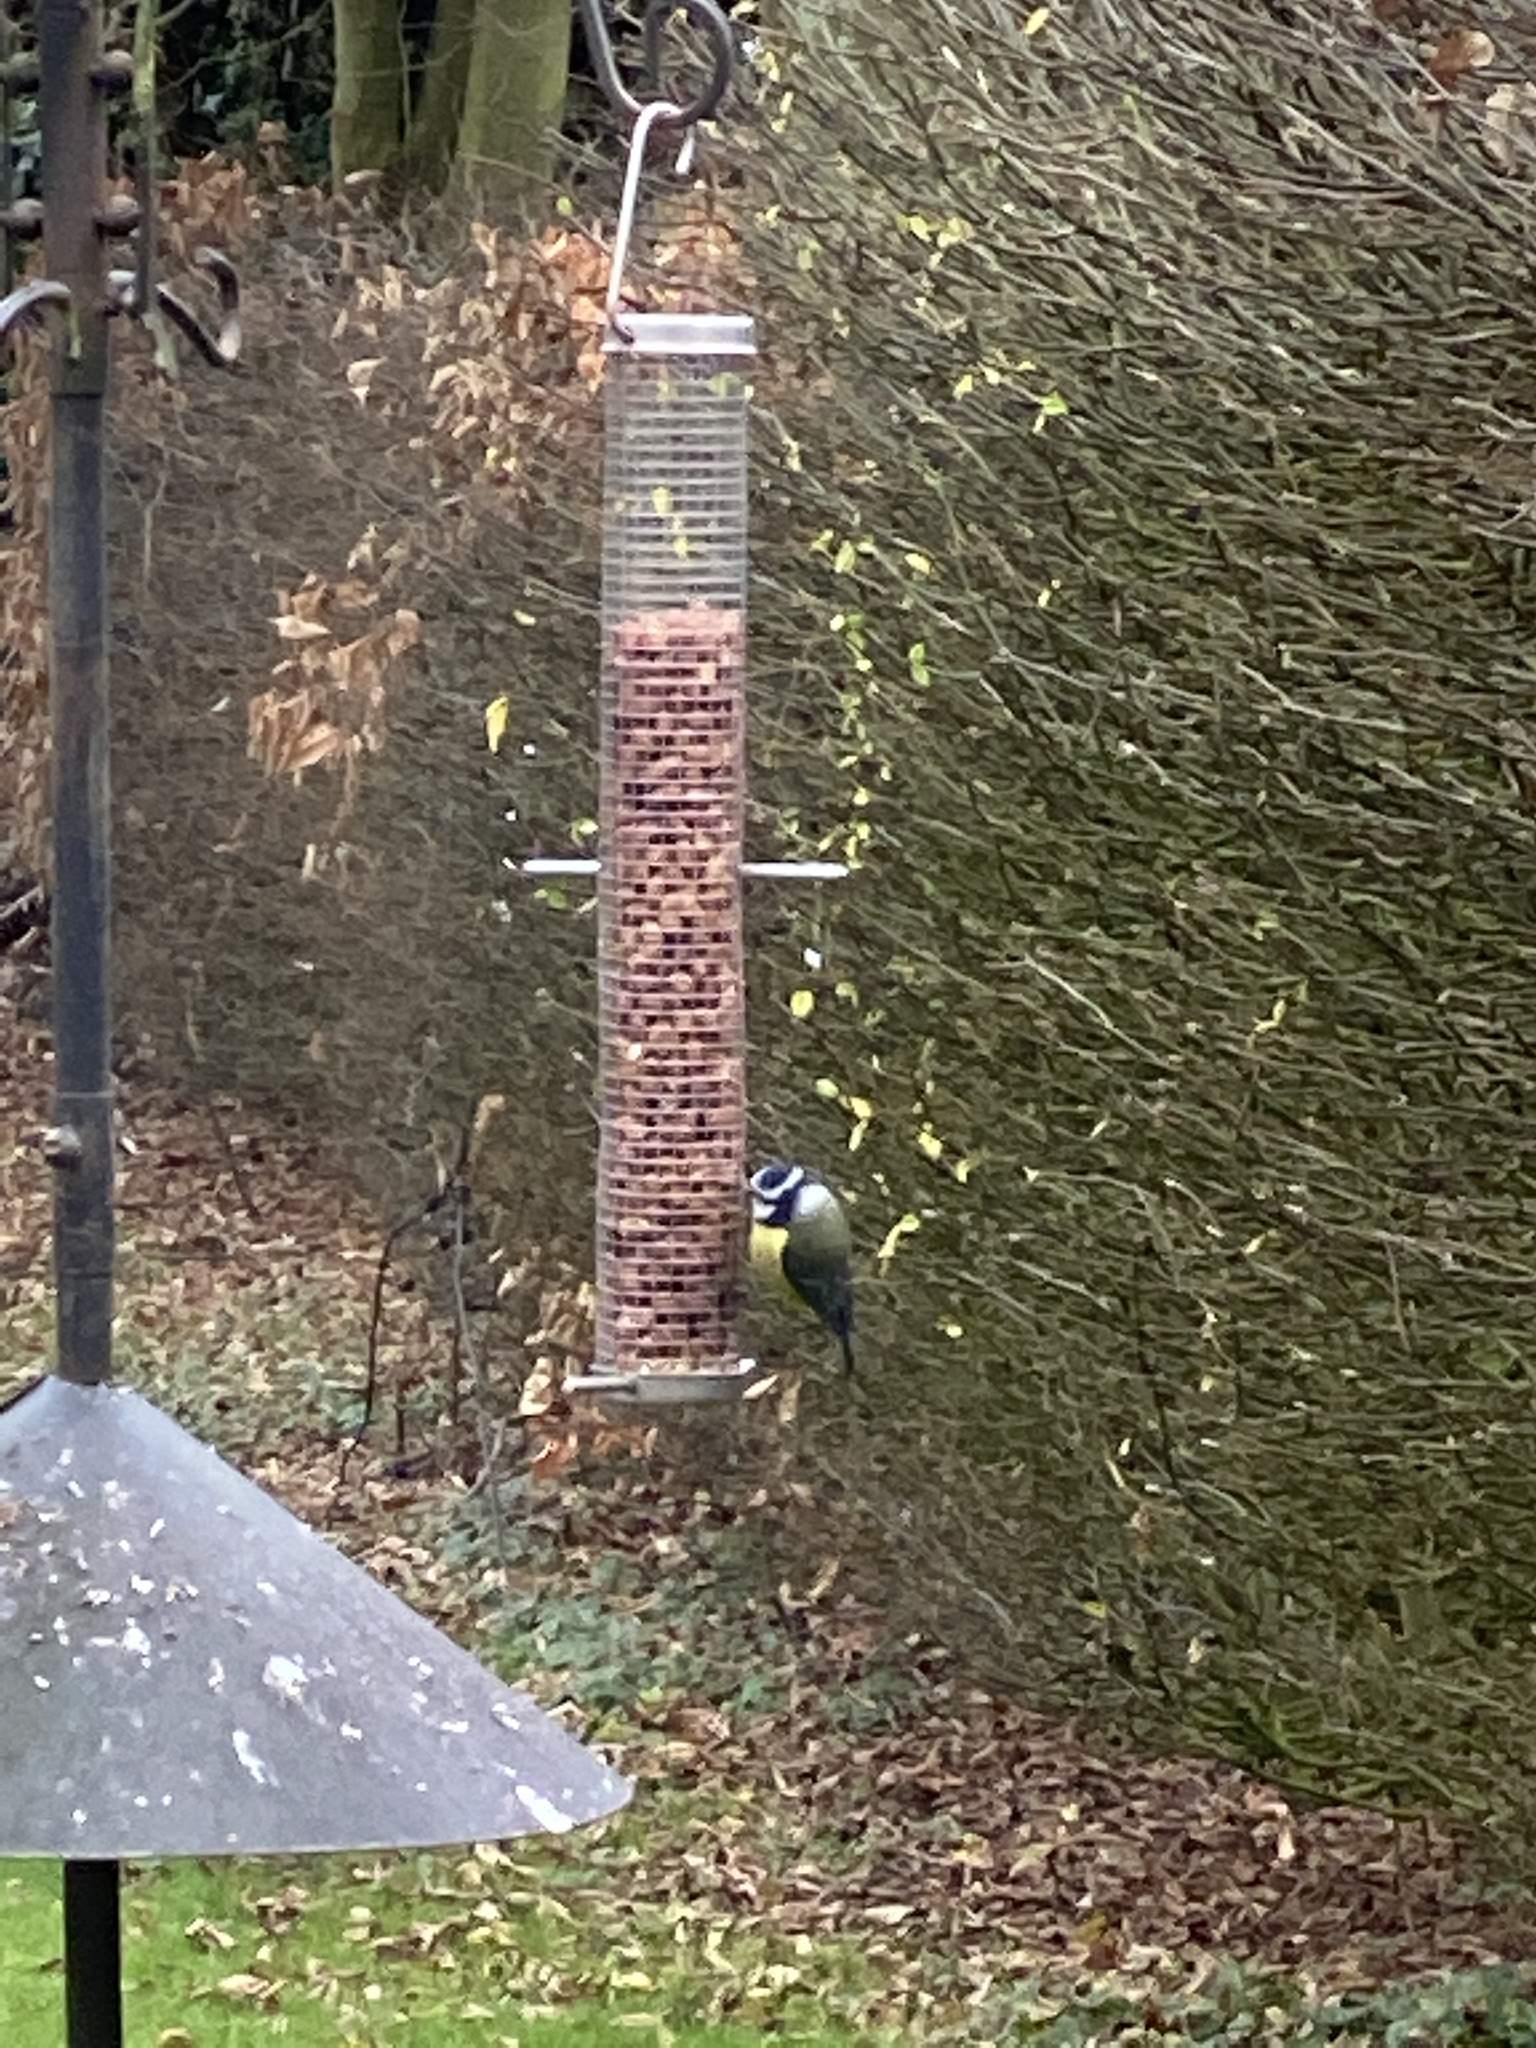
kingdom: Animalia
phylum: Chordata
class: Aves
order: Passeriformes
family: Paridae
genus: Cyanistes
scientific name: Cyanistes caeruleus
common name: Eurasian blue tit
